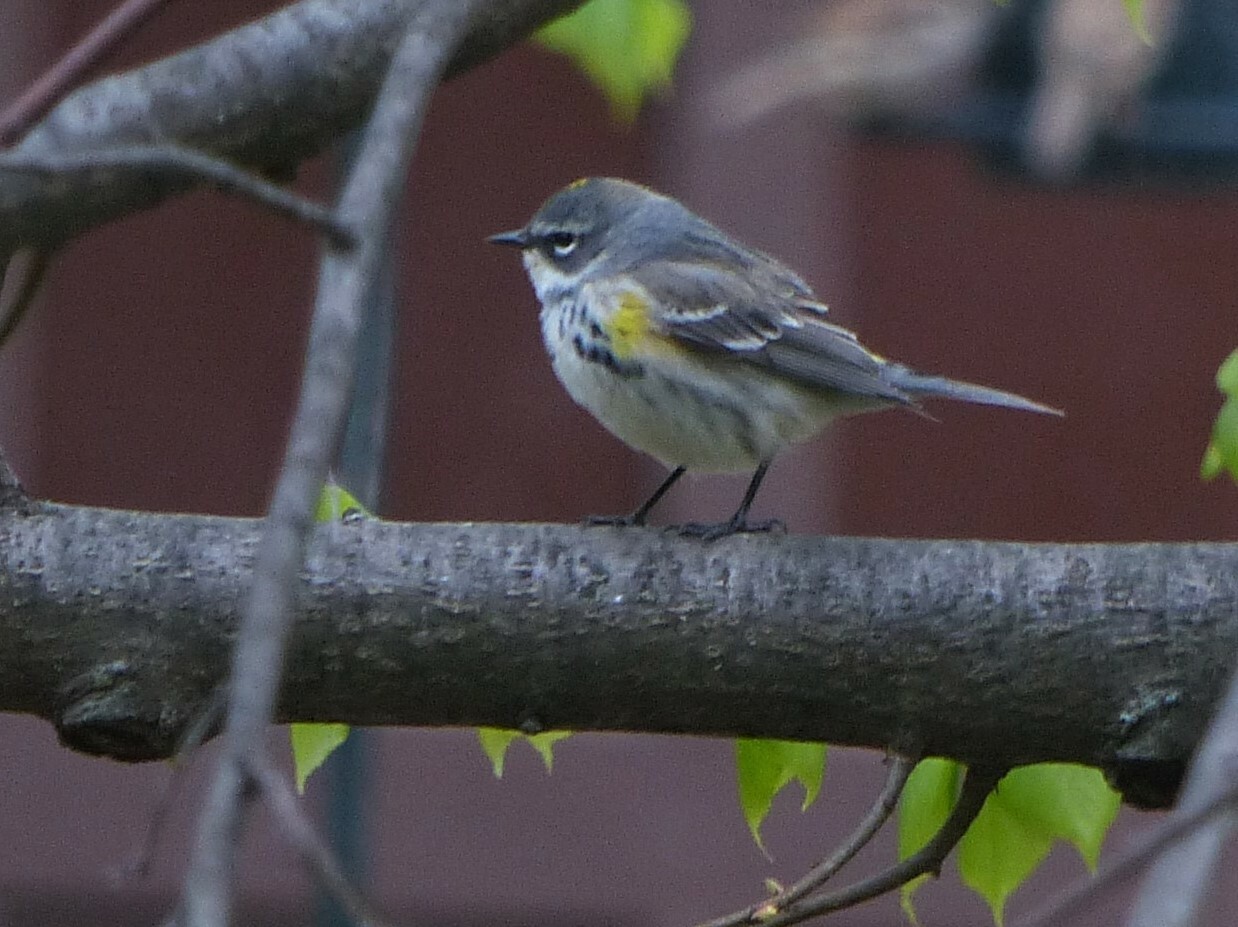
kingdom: Animalia
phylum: Chordata
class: Aves
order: Passeriformes
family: Parulidae
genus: Setophaga
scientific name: Setophaga coronata
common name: Myrtle warbler
